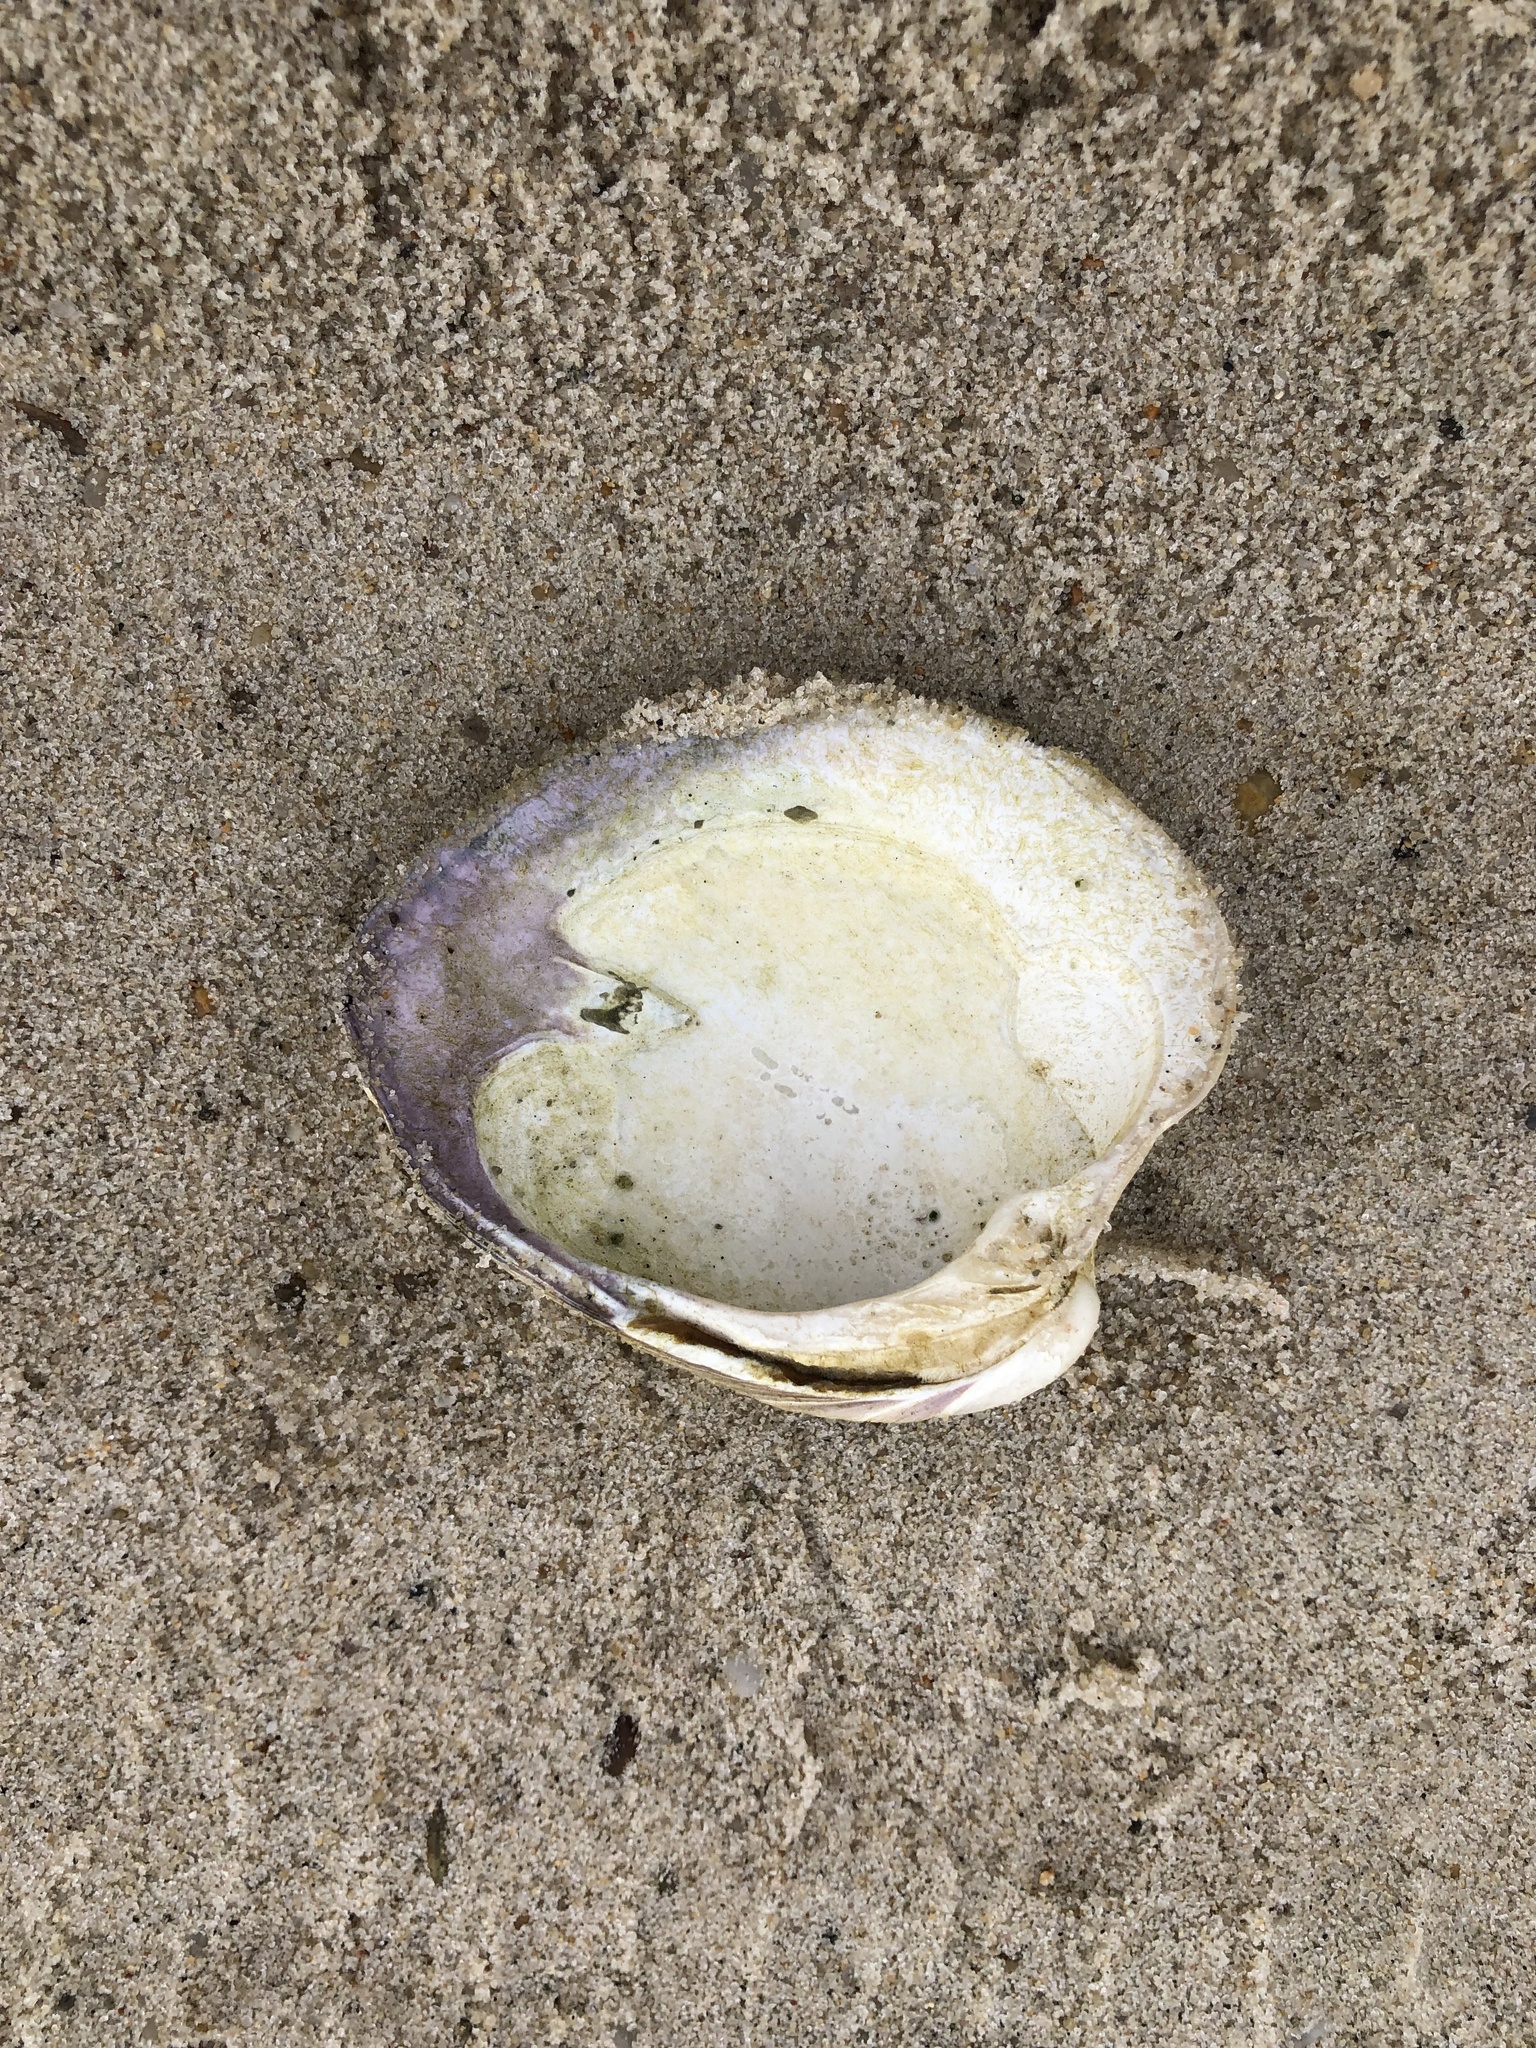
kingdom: Animalia
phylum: Mollusca
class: Bivalvia
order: Venerida
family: Veneridae
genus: Mercenaria
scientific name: Mercenaria mercenaria
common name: American hard-shelled clam
